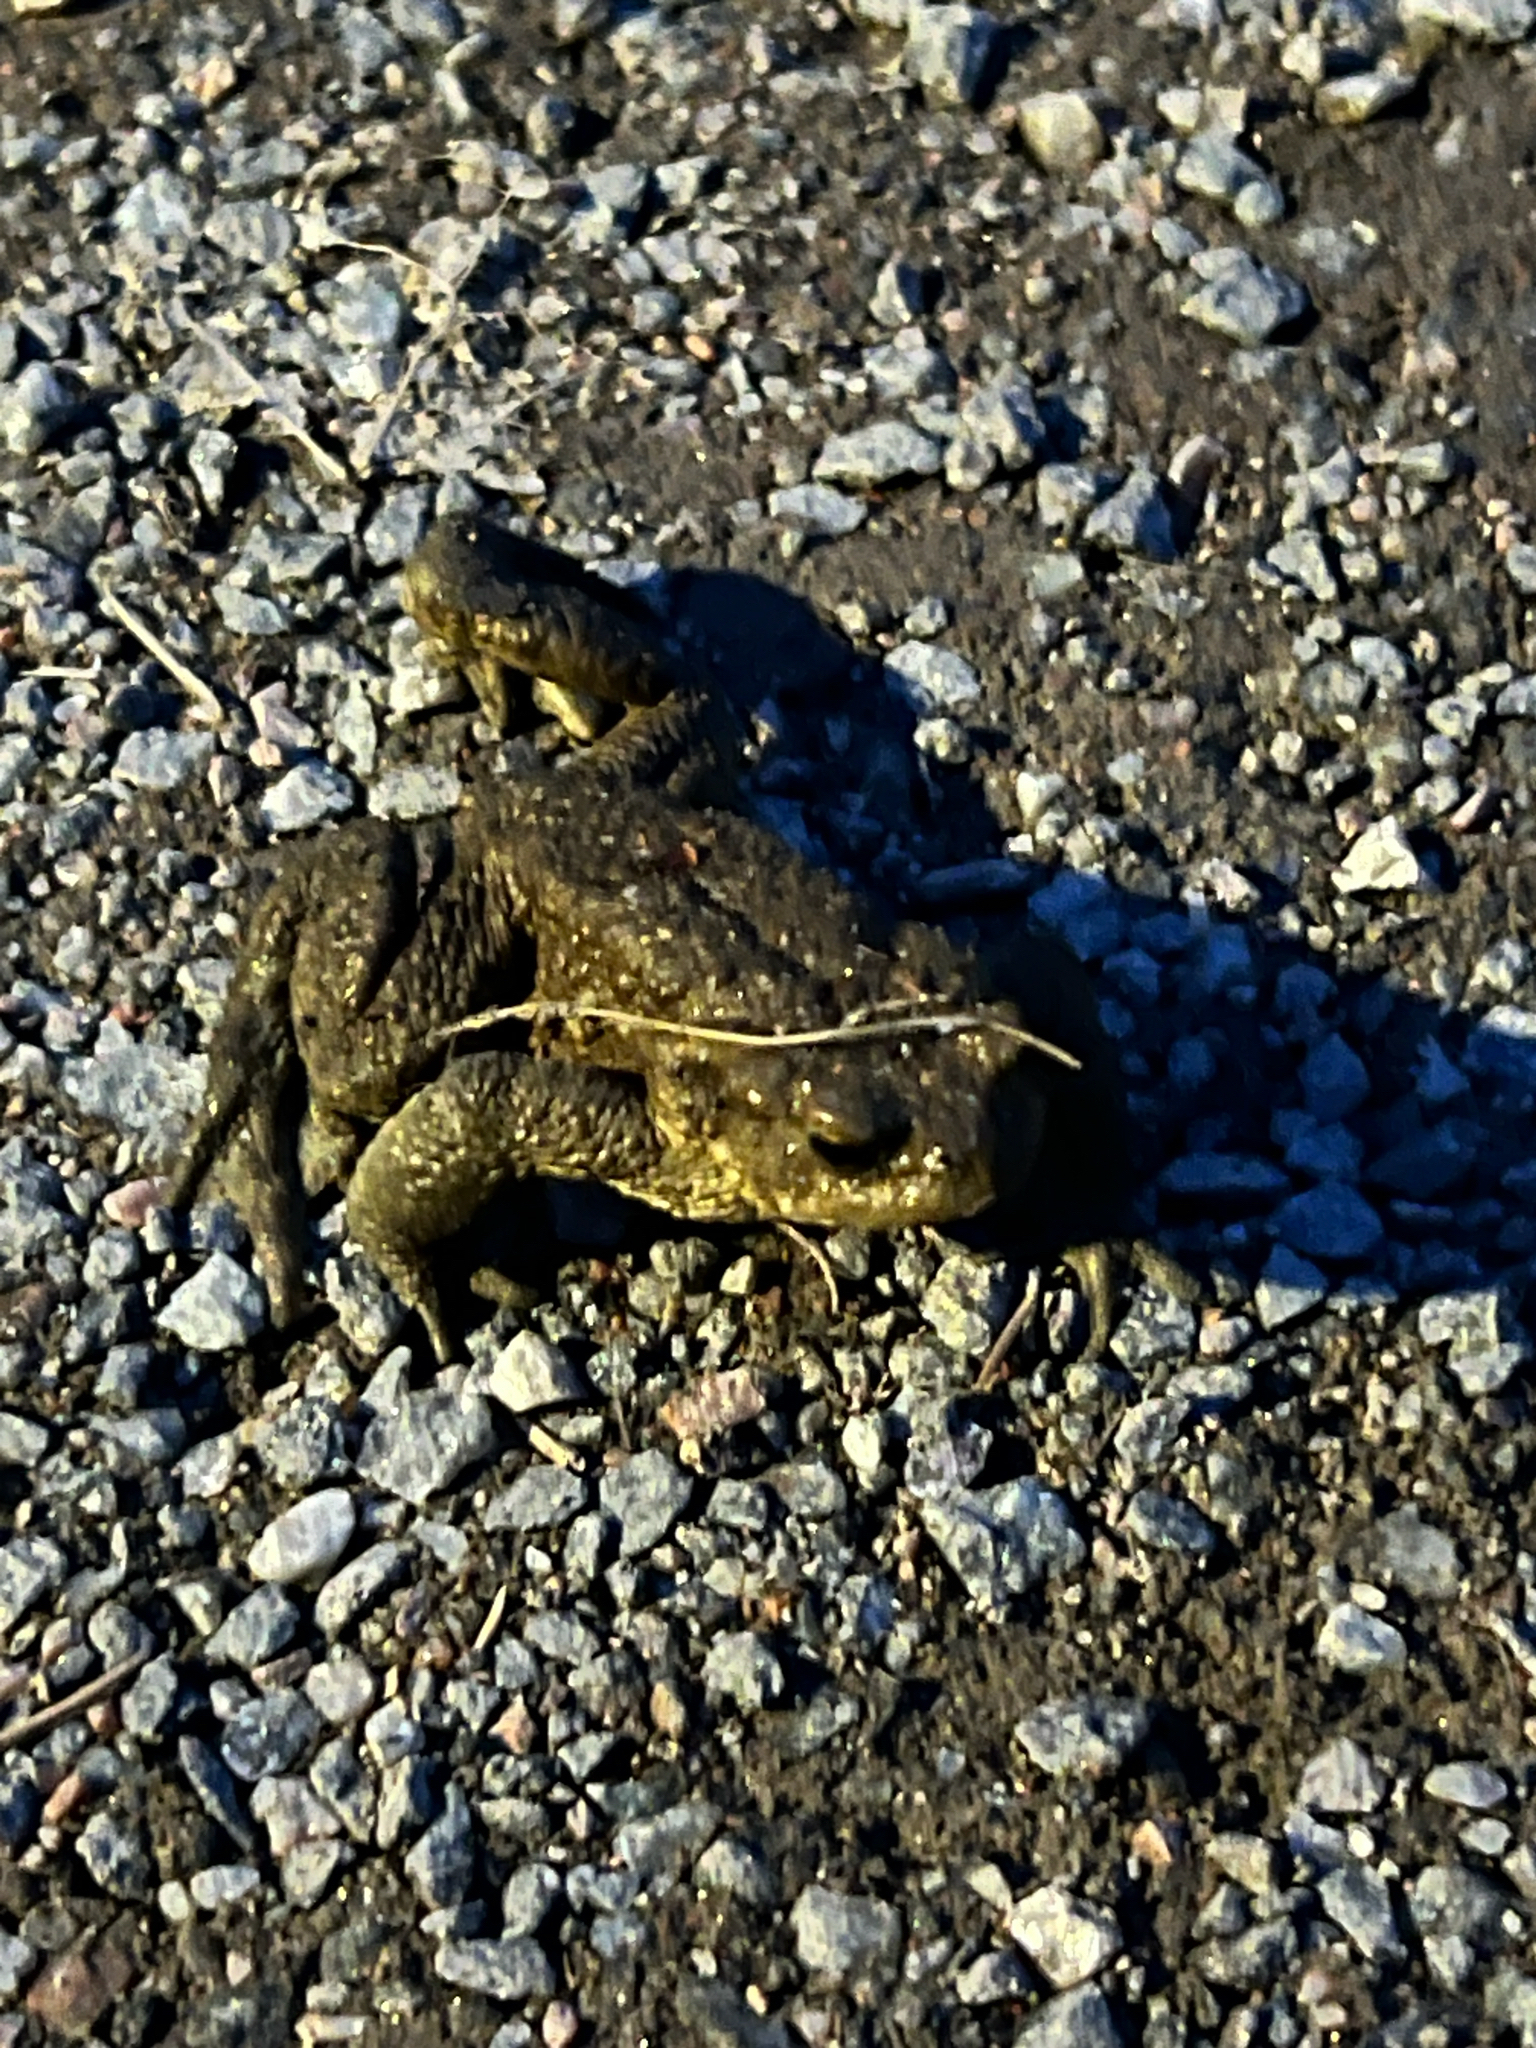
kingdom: Animalia
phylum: Chordata
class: Amphibia
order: Anura
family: Bufonidae
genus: Bufo
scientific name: Bufo bufo
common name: Common toad
